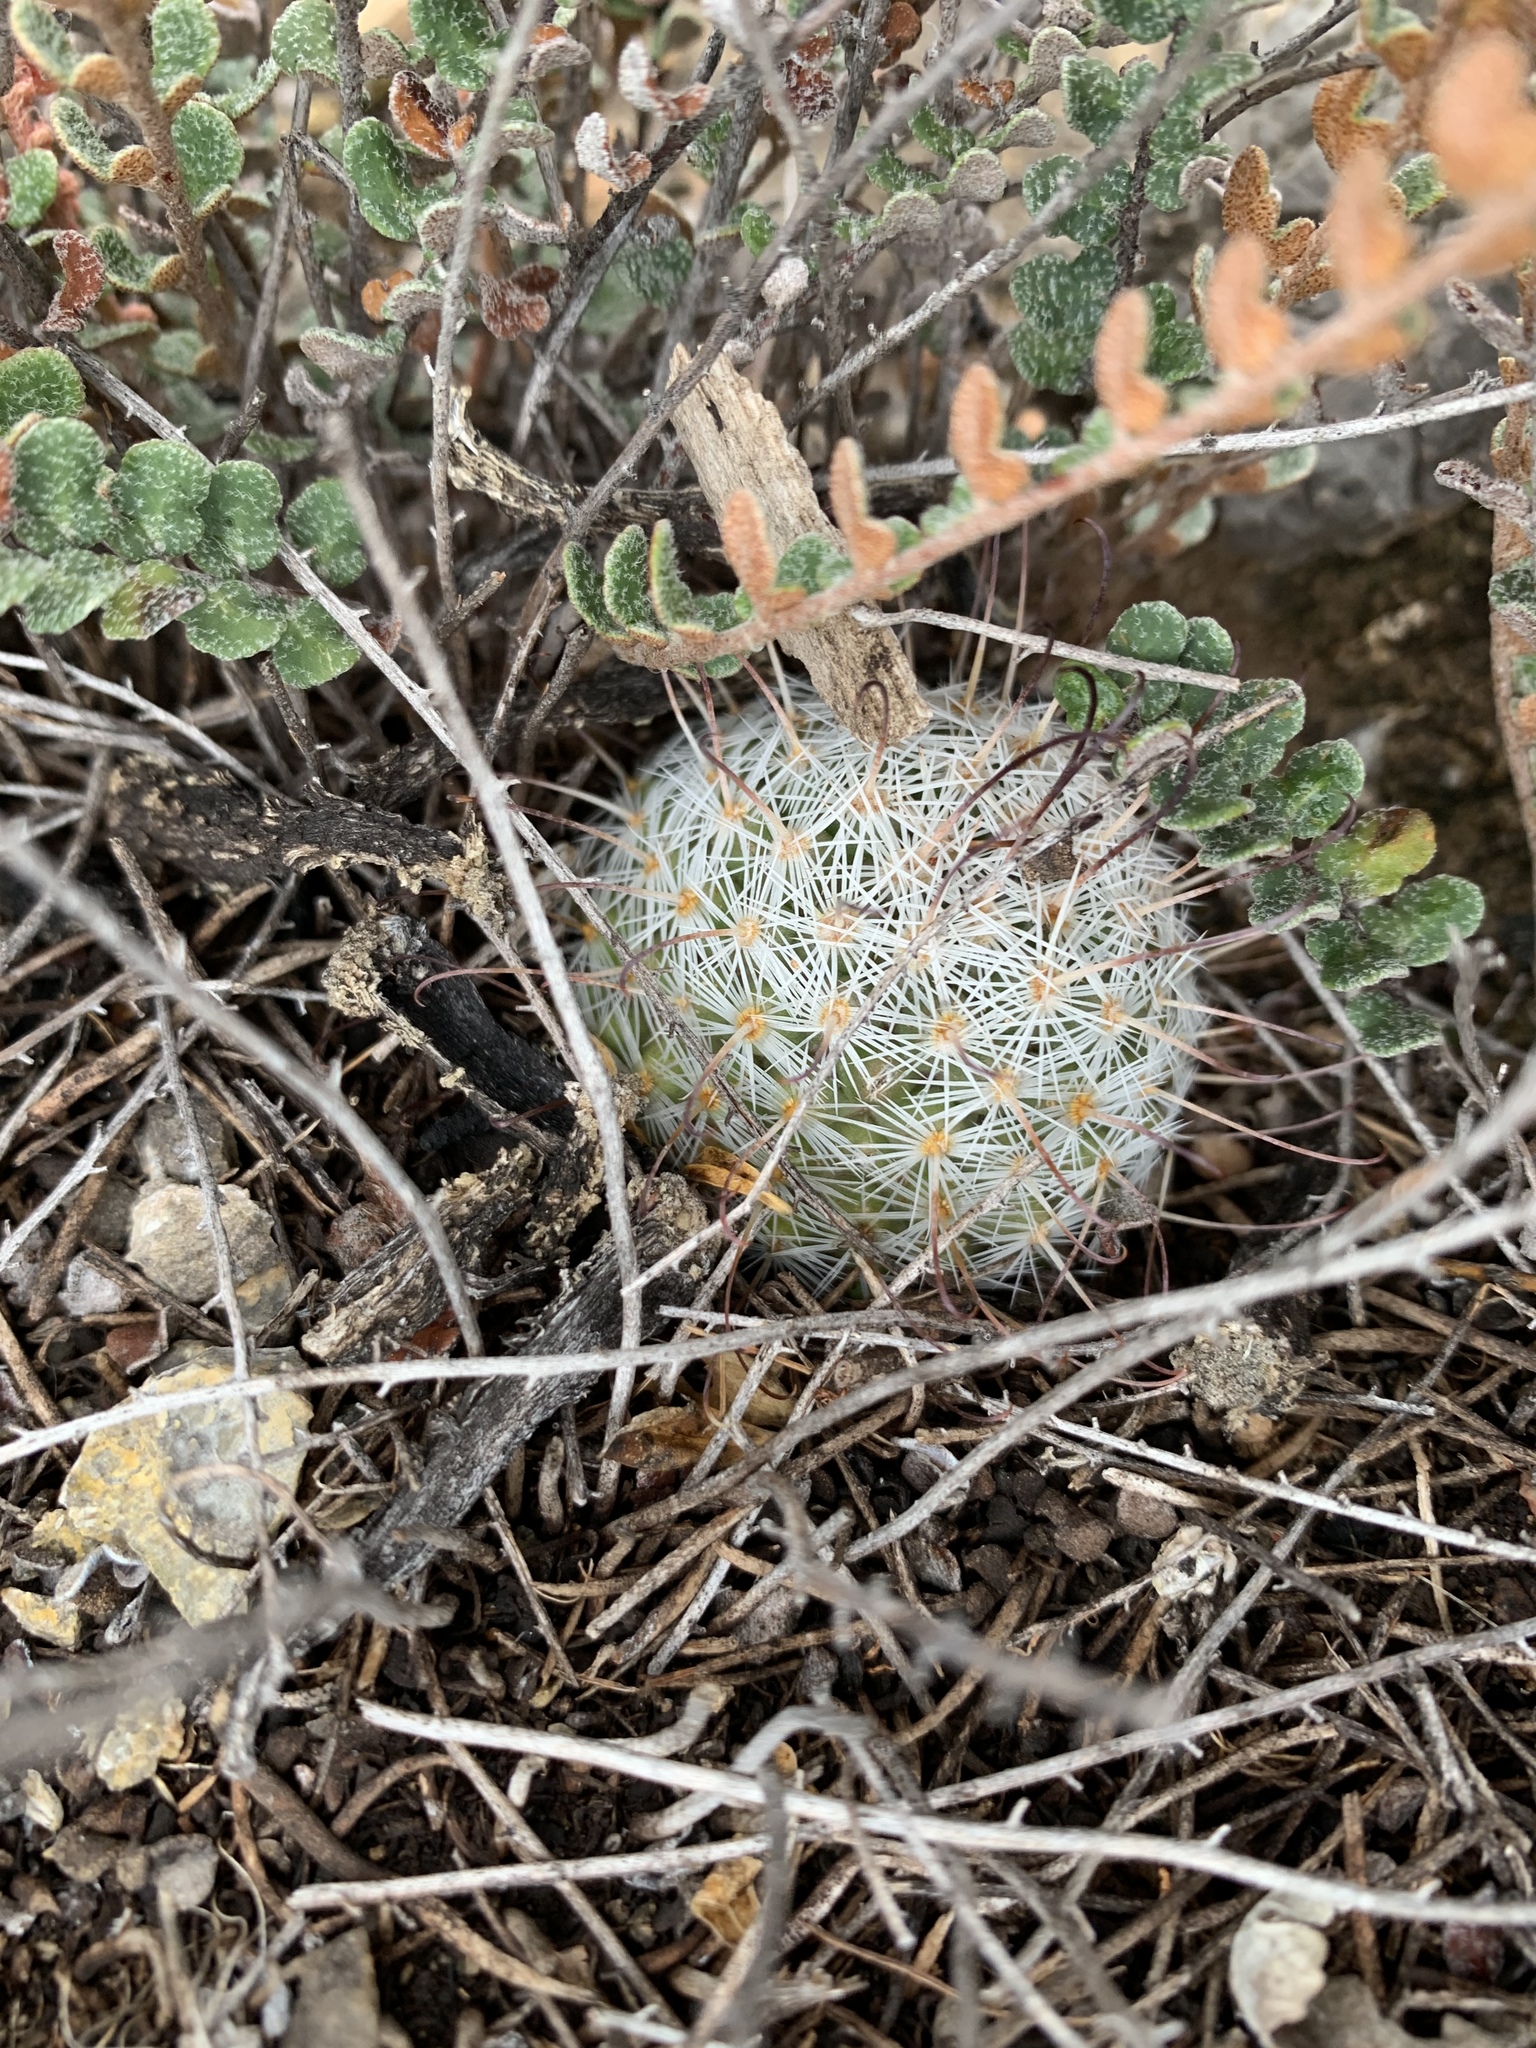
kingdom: Plantae
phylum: Tracheophyta
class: Magnoliopsida
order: Caryophyllales
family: Cactaceae
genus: Cochemiea
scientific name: Cochemiea grahamii
